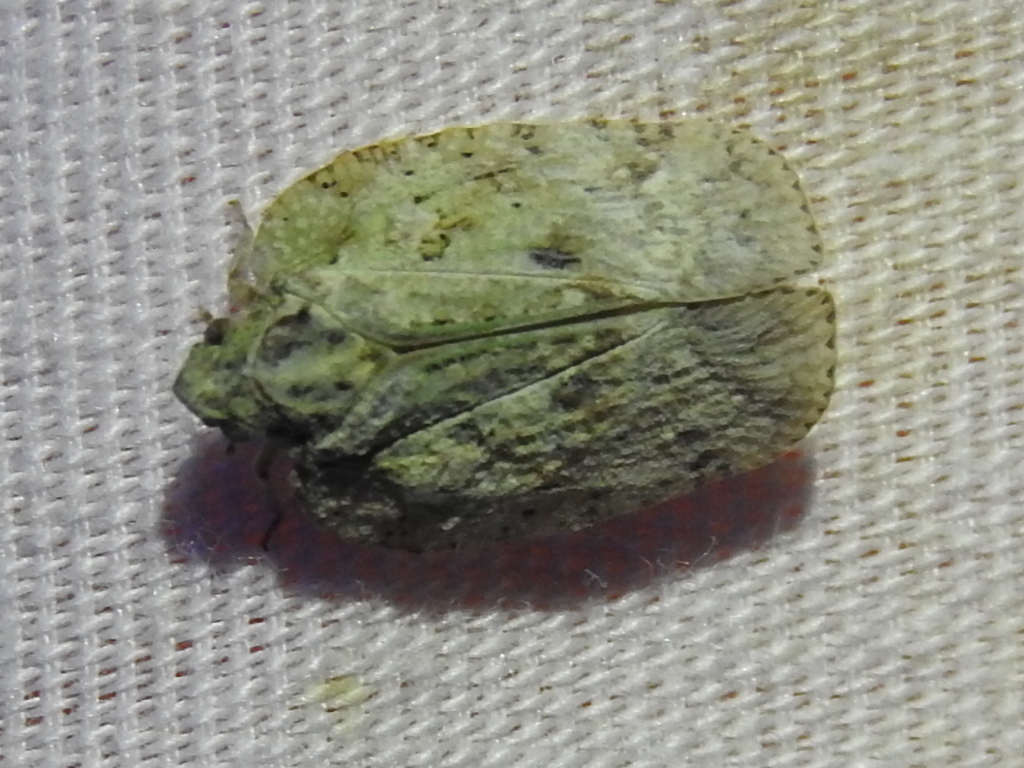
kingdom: Animalia
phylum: Arthropoda
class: Insecta
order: Hemiptera
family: Flatidae
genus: Flatoidinus
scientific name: Flatoidinus punctatus
